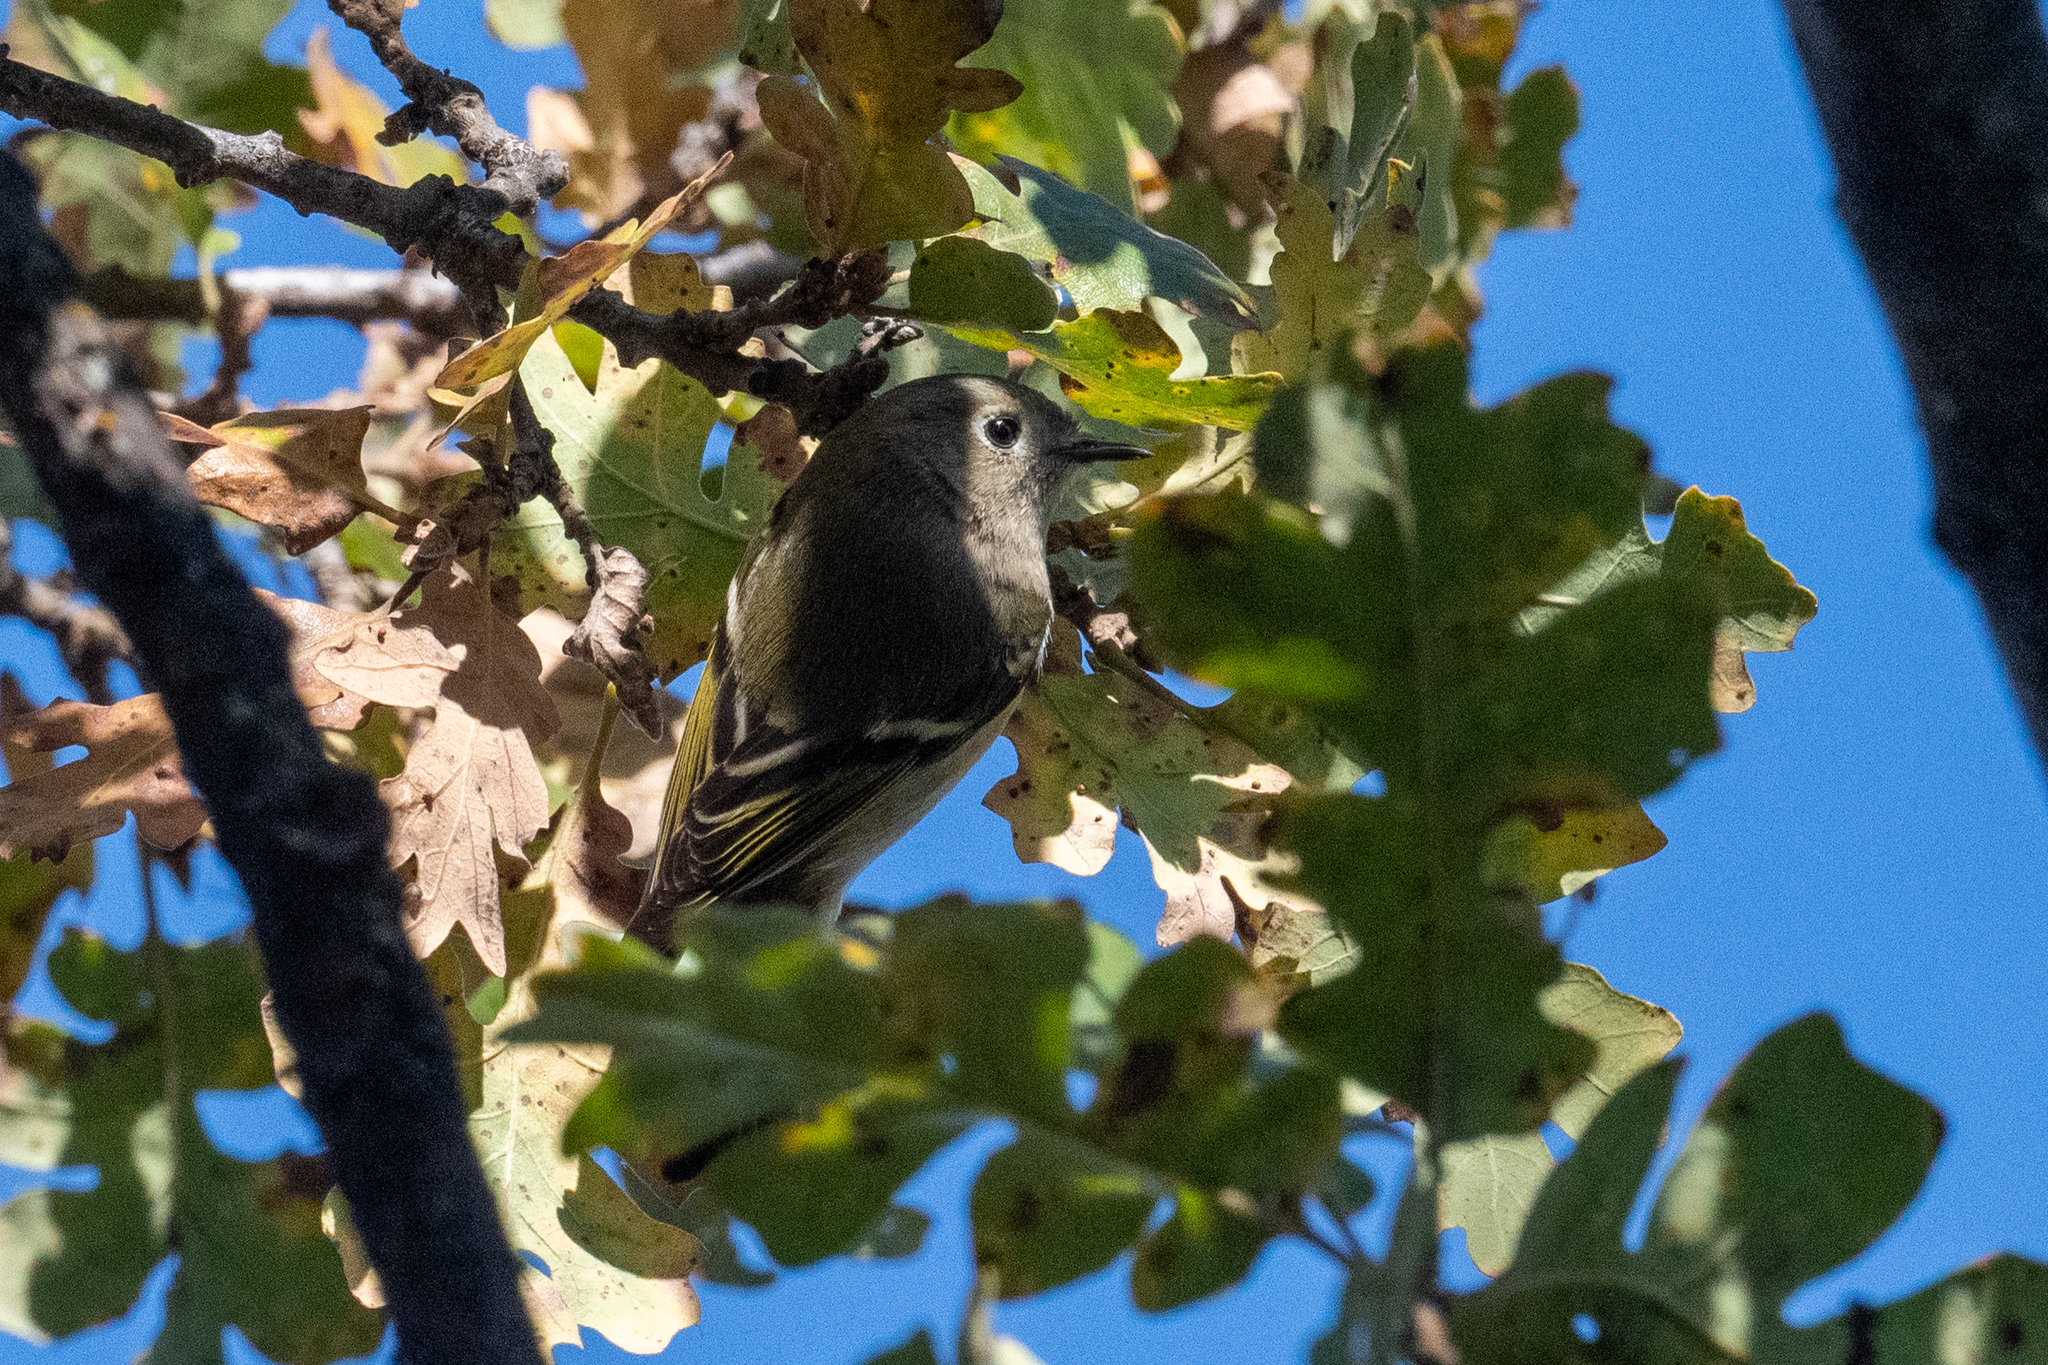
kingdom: Animalia
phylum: Chordata
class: Aves
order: Passeriformes
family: Regulidae
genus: Regulus
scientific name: Regulus calendula
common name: Ruby-crowned kinglet
